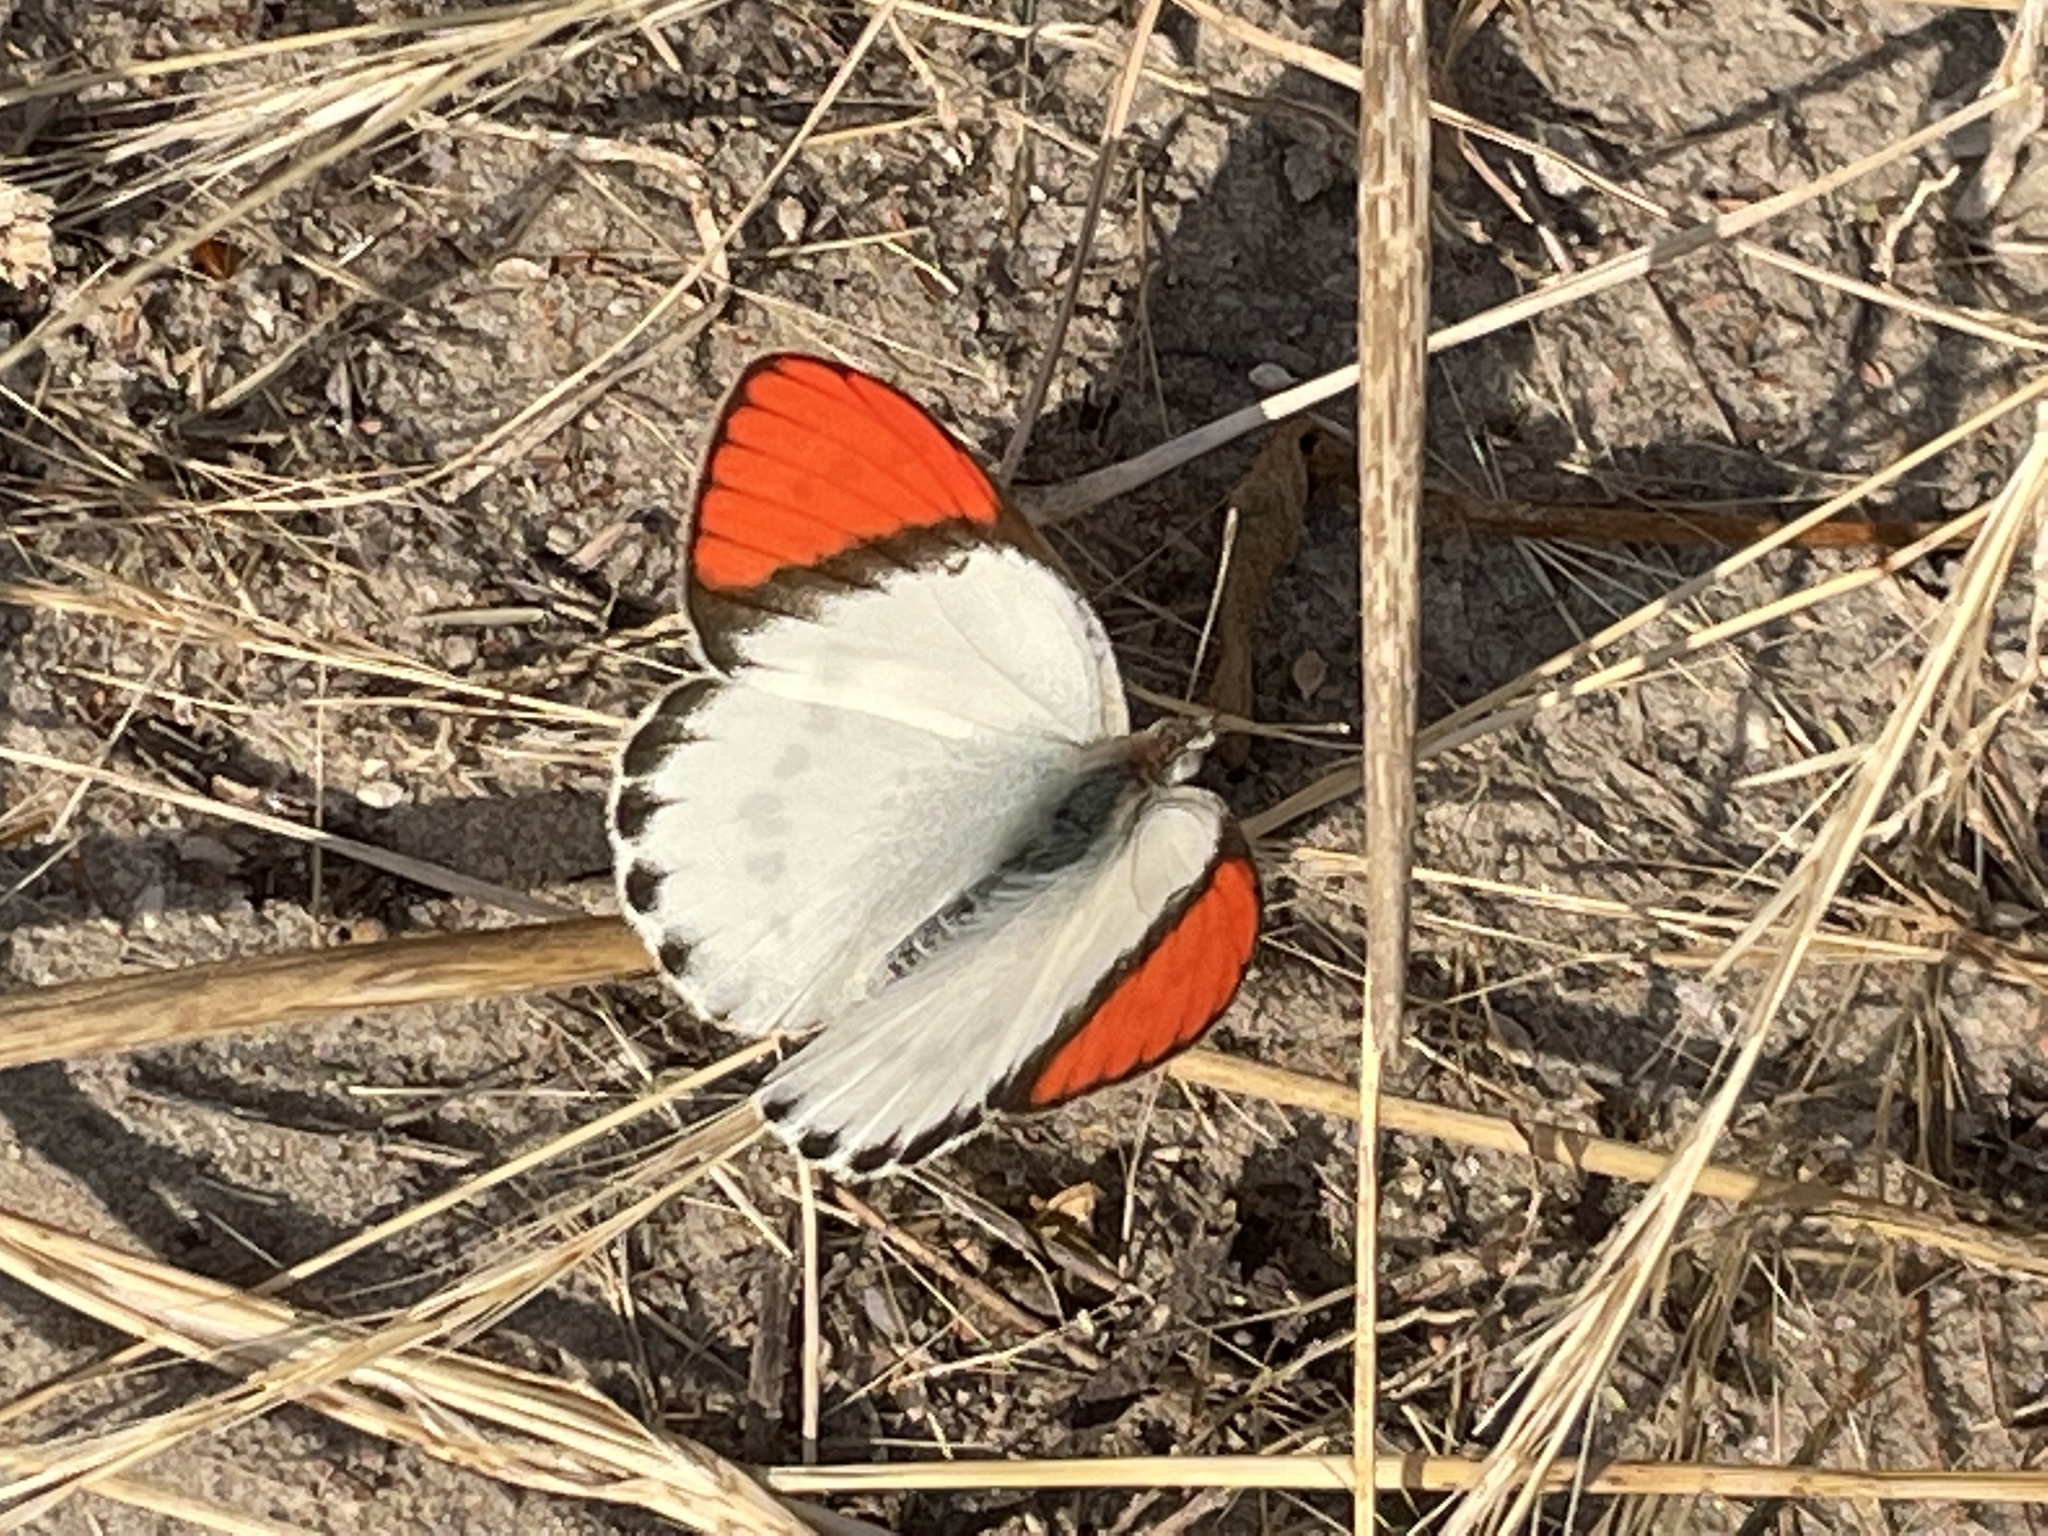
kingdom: Animalia
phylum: Arthropoda
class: Insecta
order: Lepidoptera
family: Pieridae
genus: Colotis
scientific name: Colotis annae
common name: Scarlet tip
